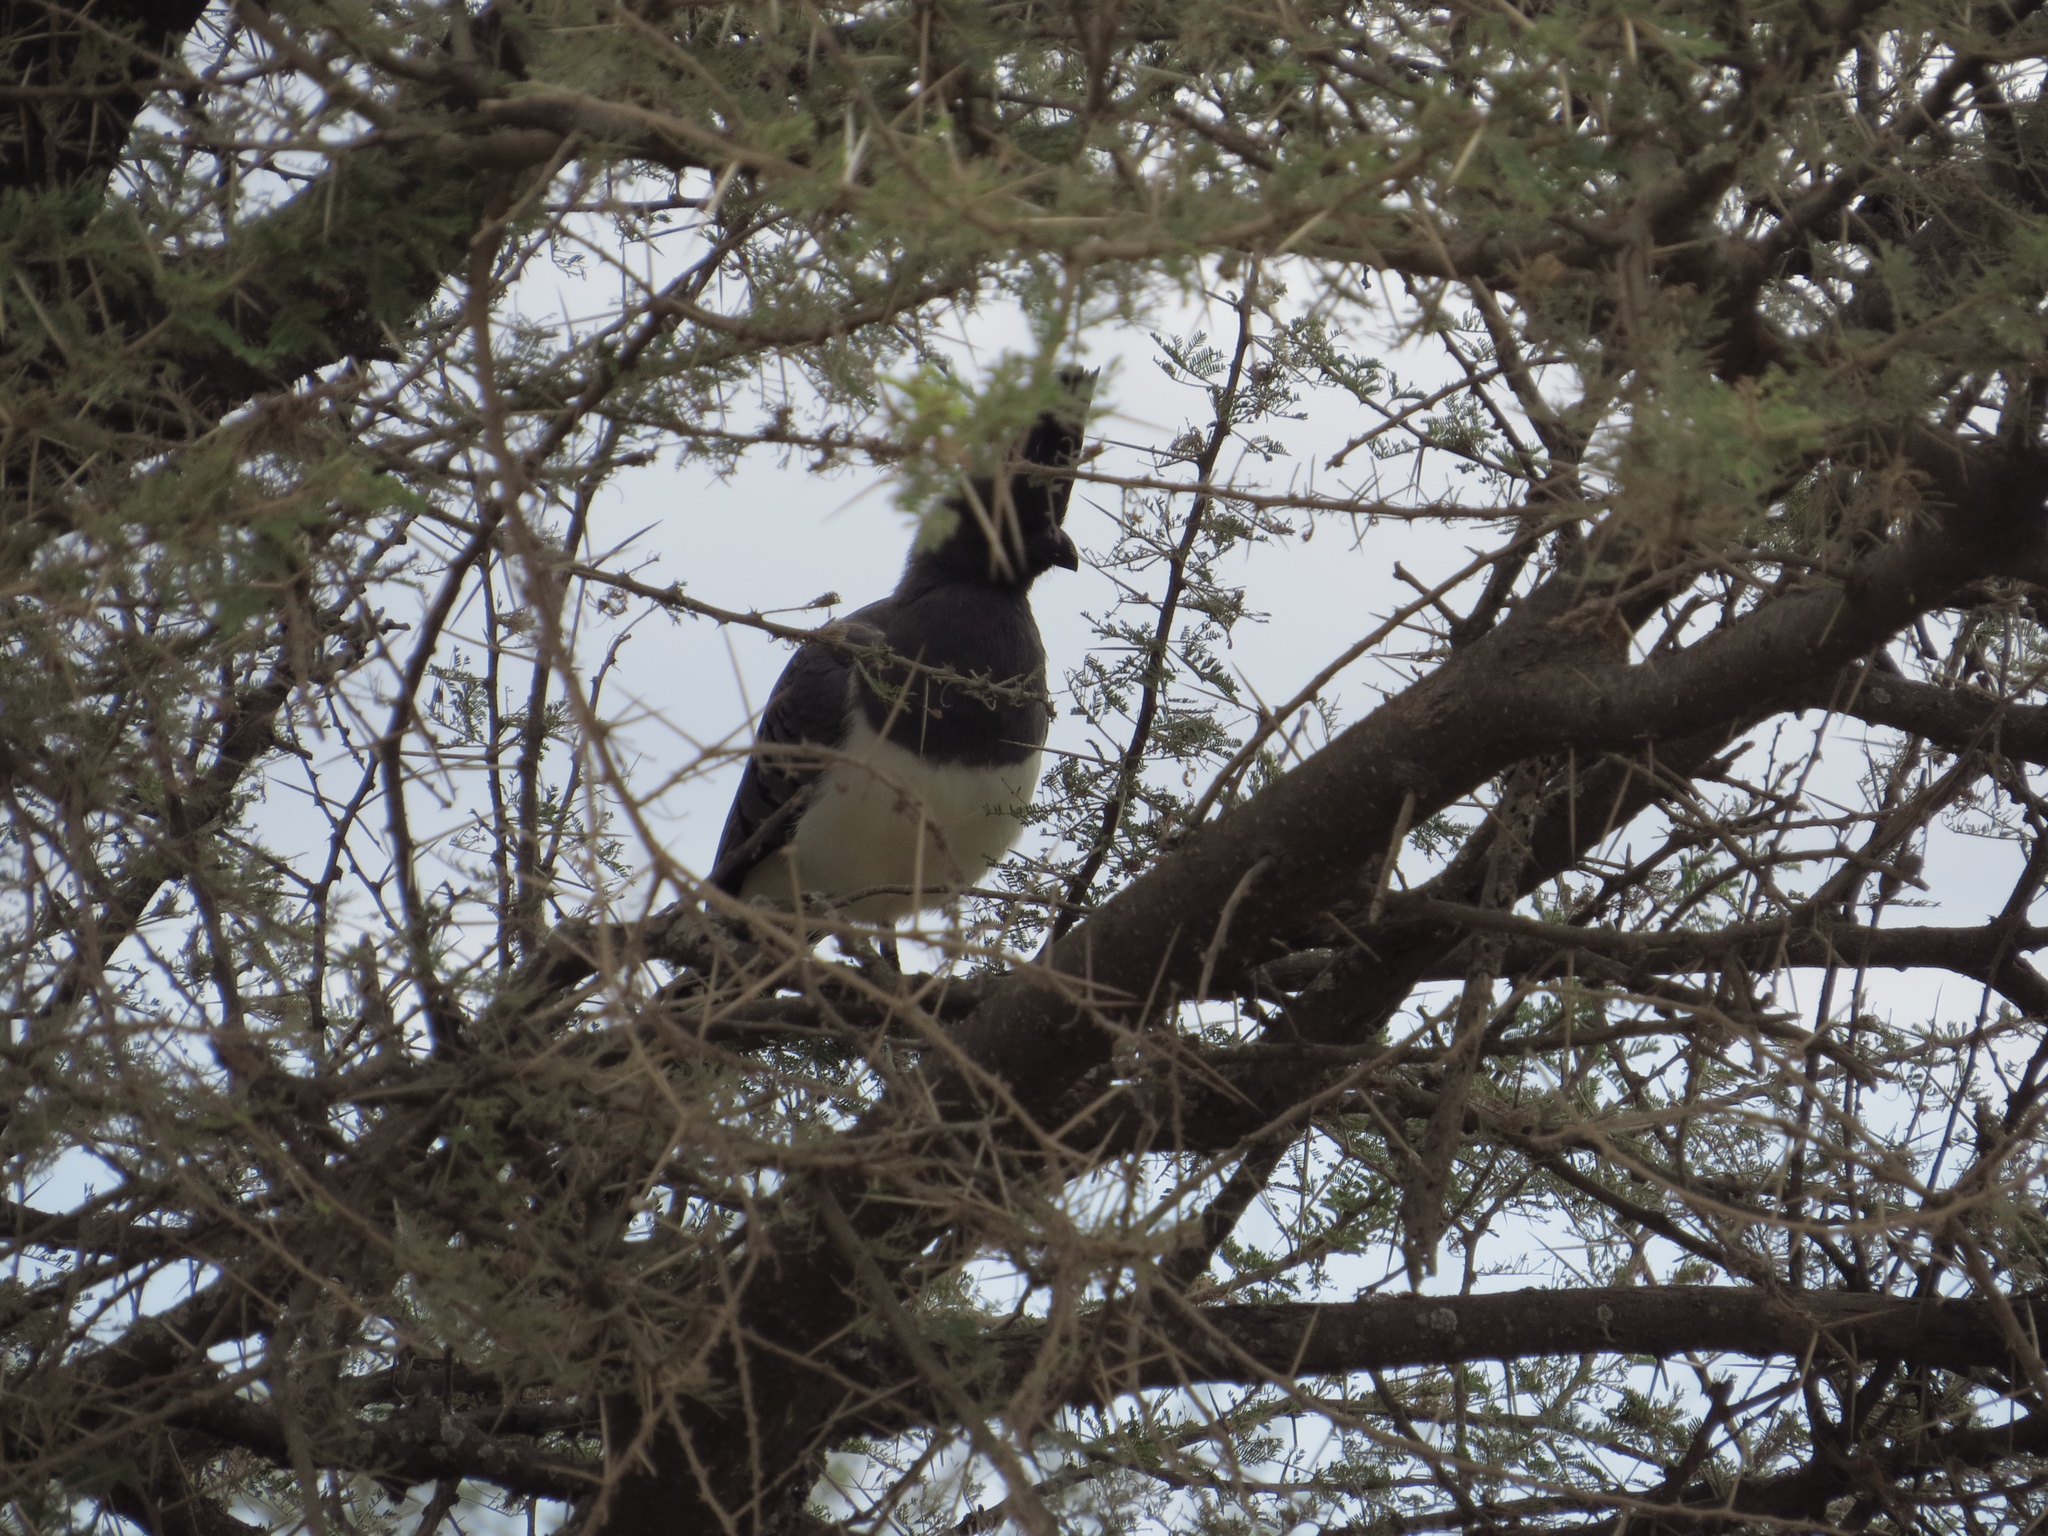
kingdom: Animalia
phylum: Chordata
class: Aves
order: Musophagiformes
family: Musophagidae
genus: Corythaixoides
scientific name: Corythaixoides leucogaster
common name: White-bellied go-away-bird
